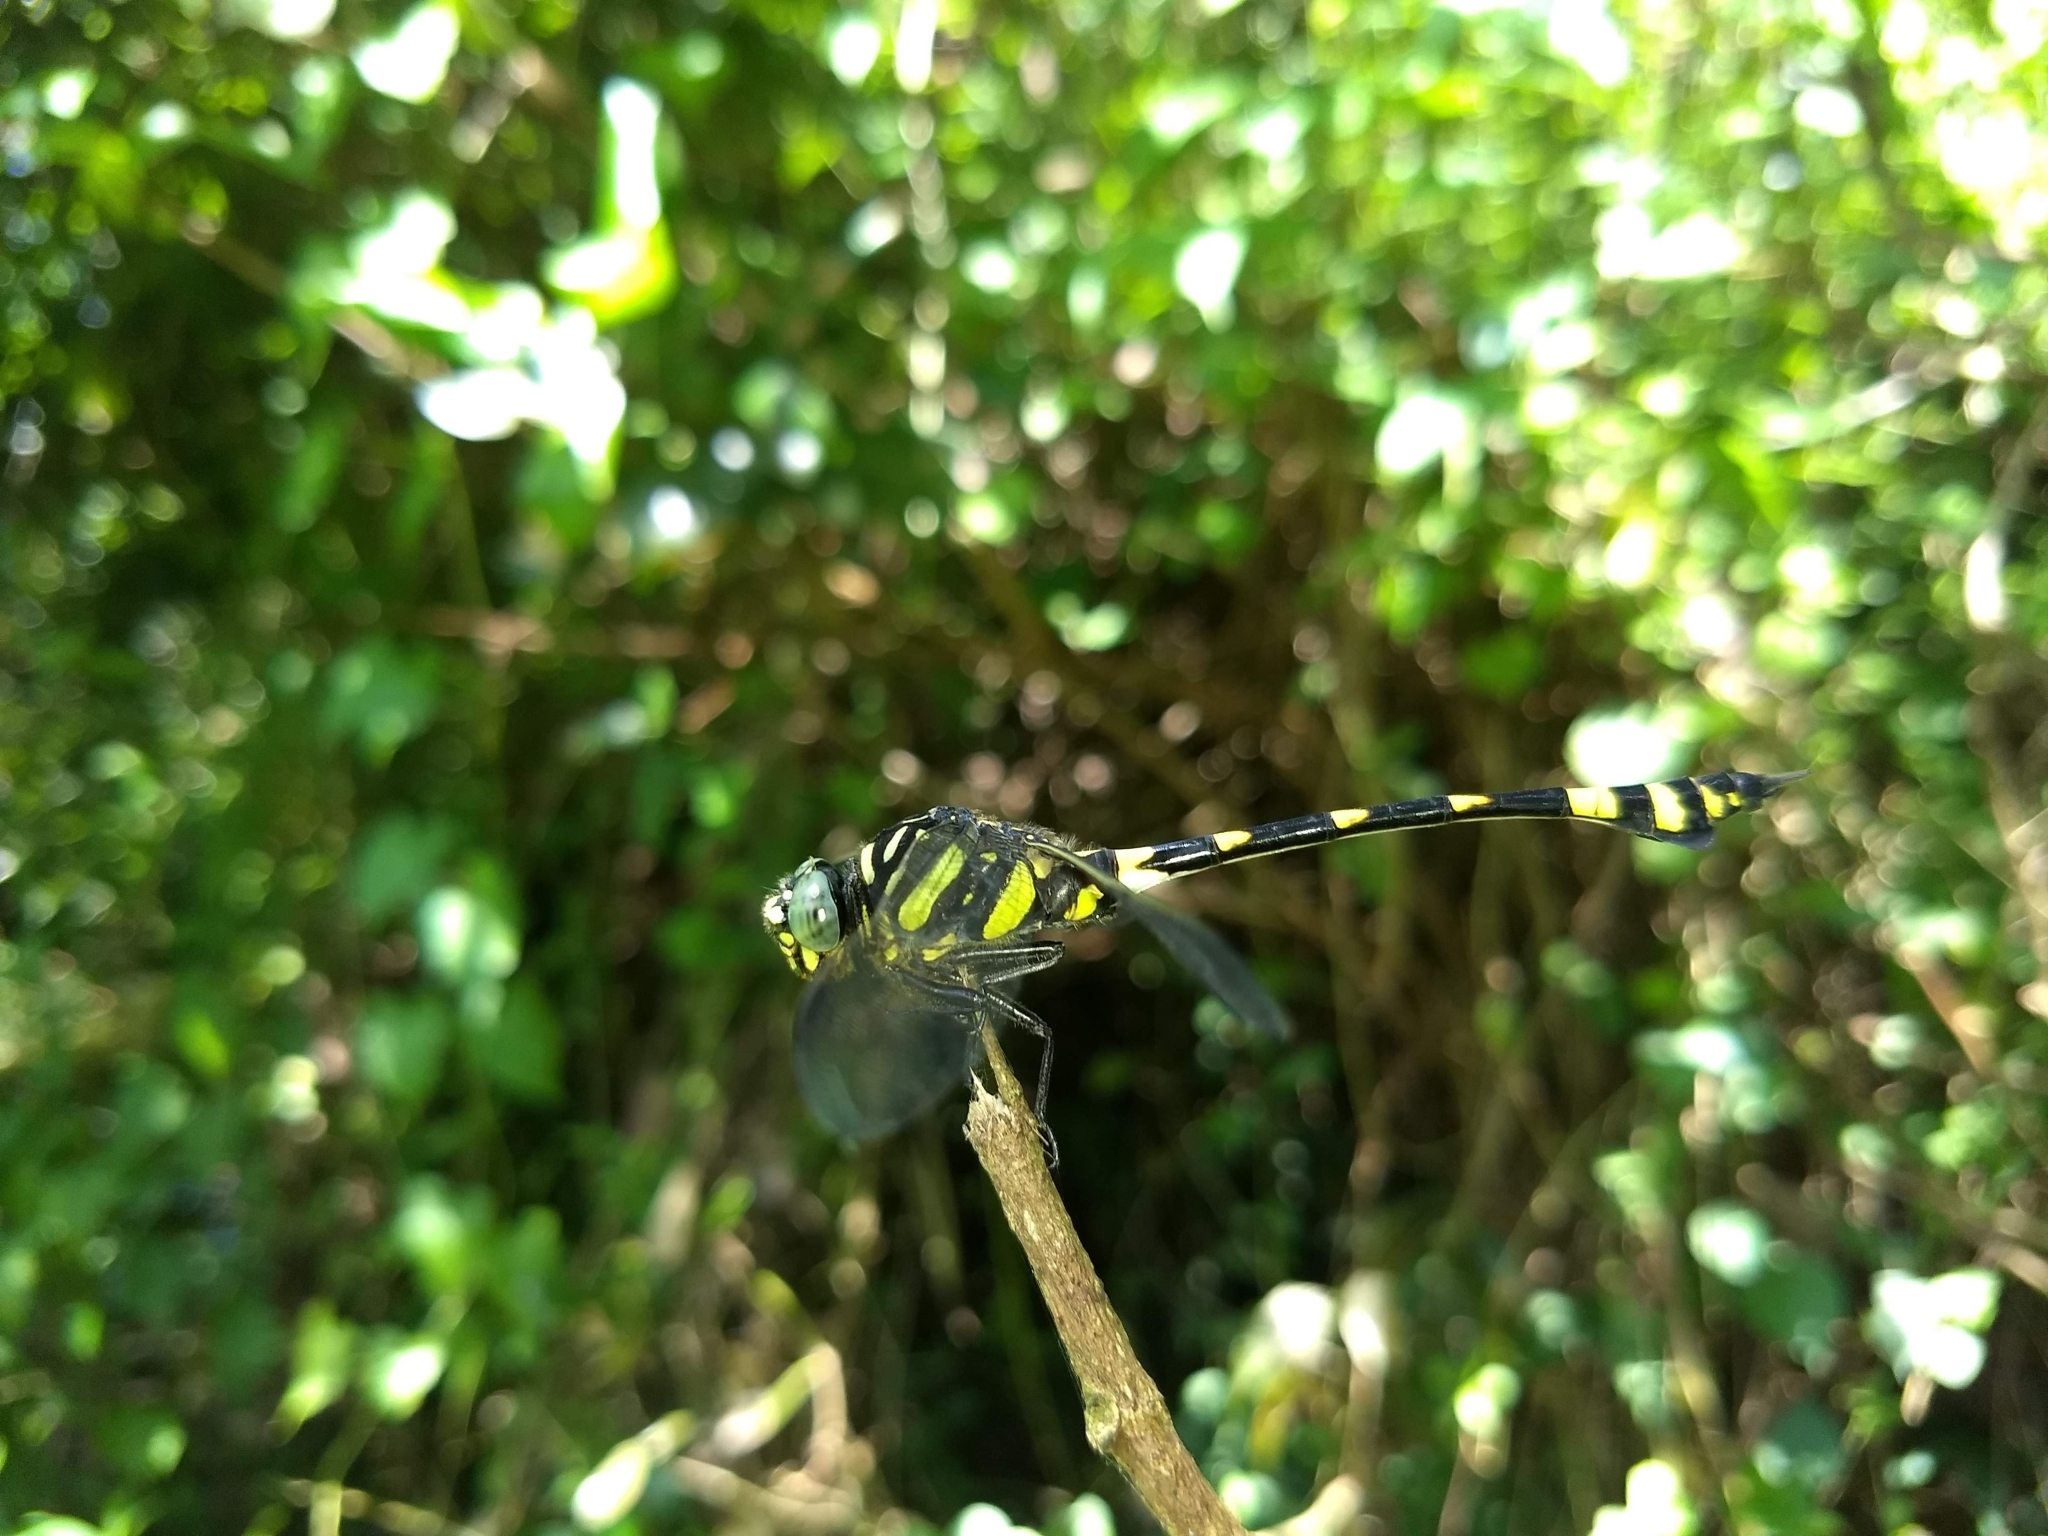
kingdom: Animalia
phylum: Arthropoda
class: Insecta
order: Odonata
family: Gomphidae
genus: Ictinogomphus
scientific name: Ictinogomphus rapax
